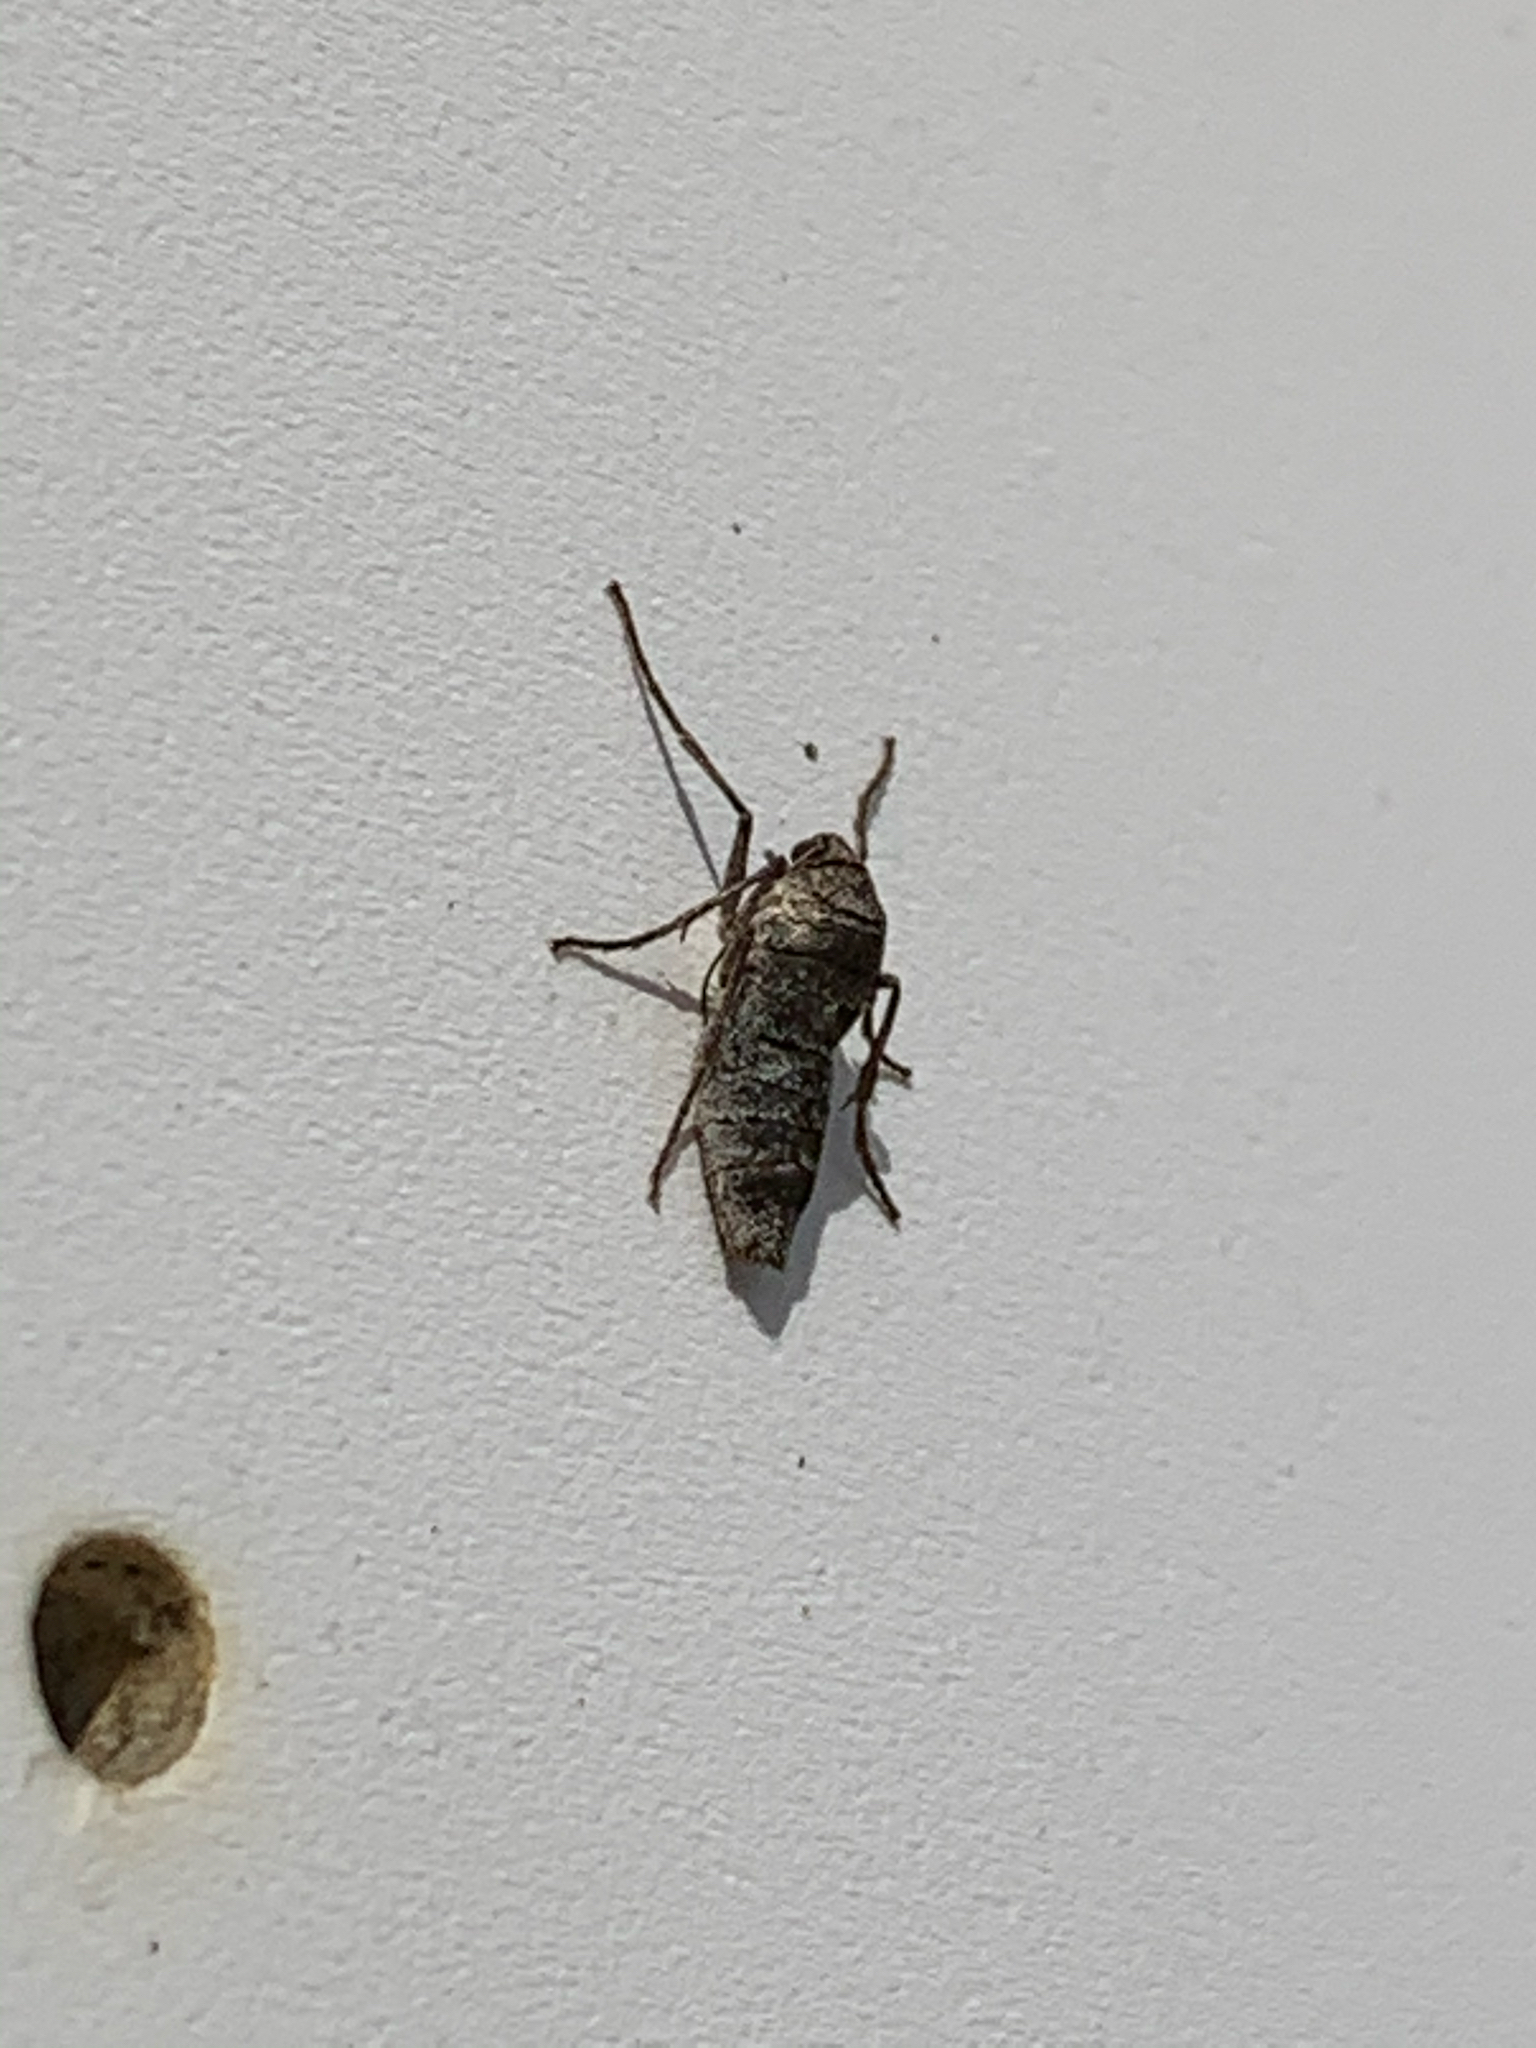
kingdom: Animalia
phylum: Arthropoda
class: Insecta
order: Lepidoptera
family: Geometridae
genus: Alsophila
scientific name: Alsophila pometaria
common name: Fall cankerworm
